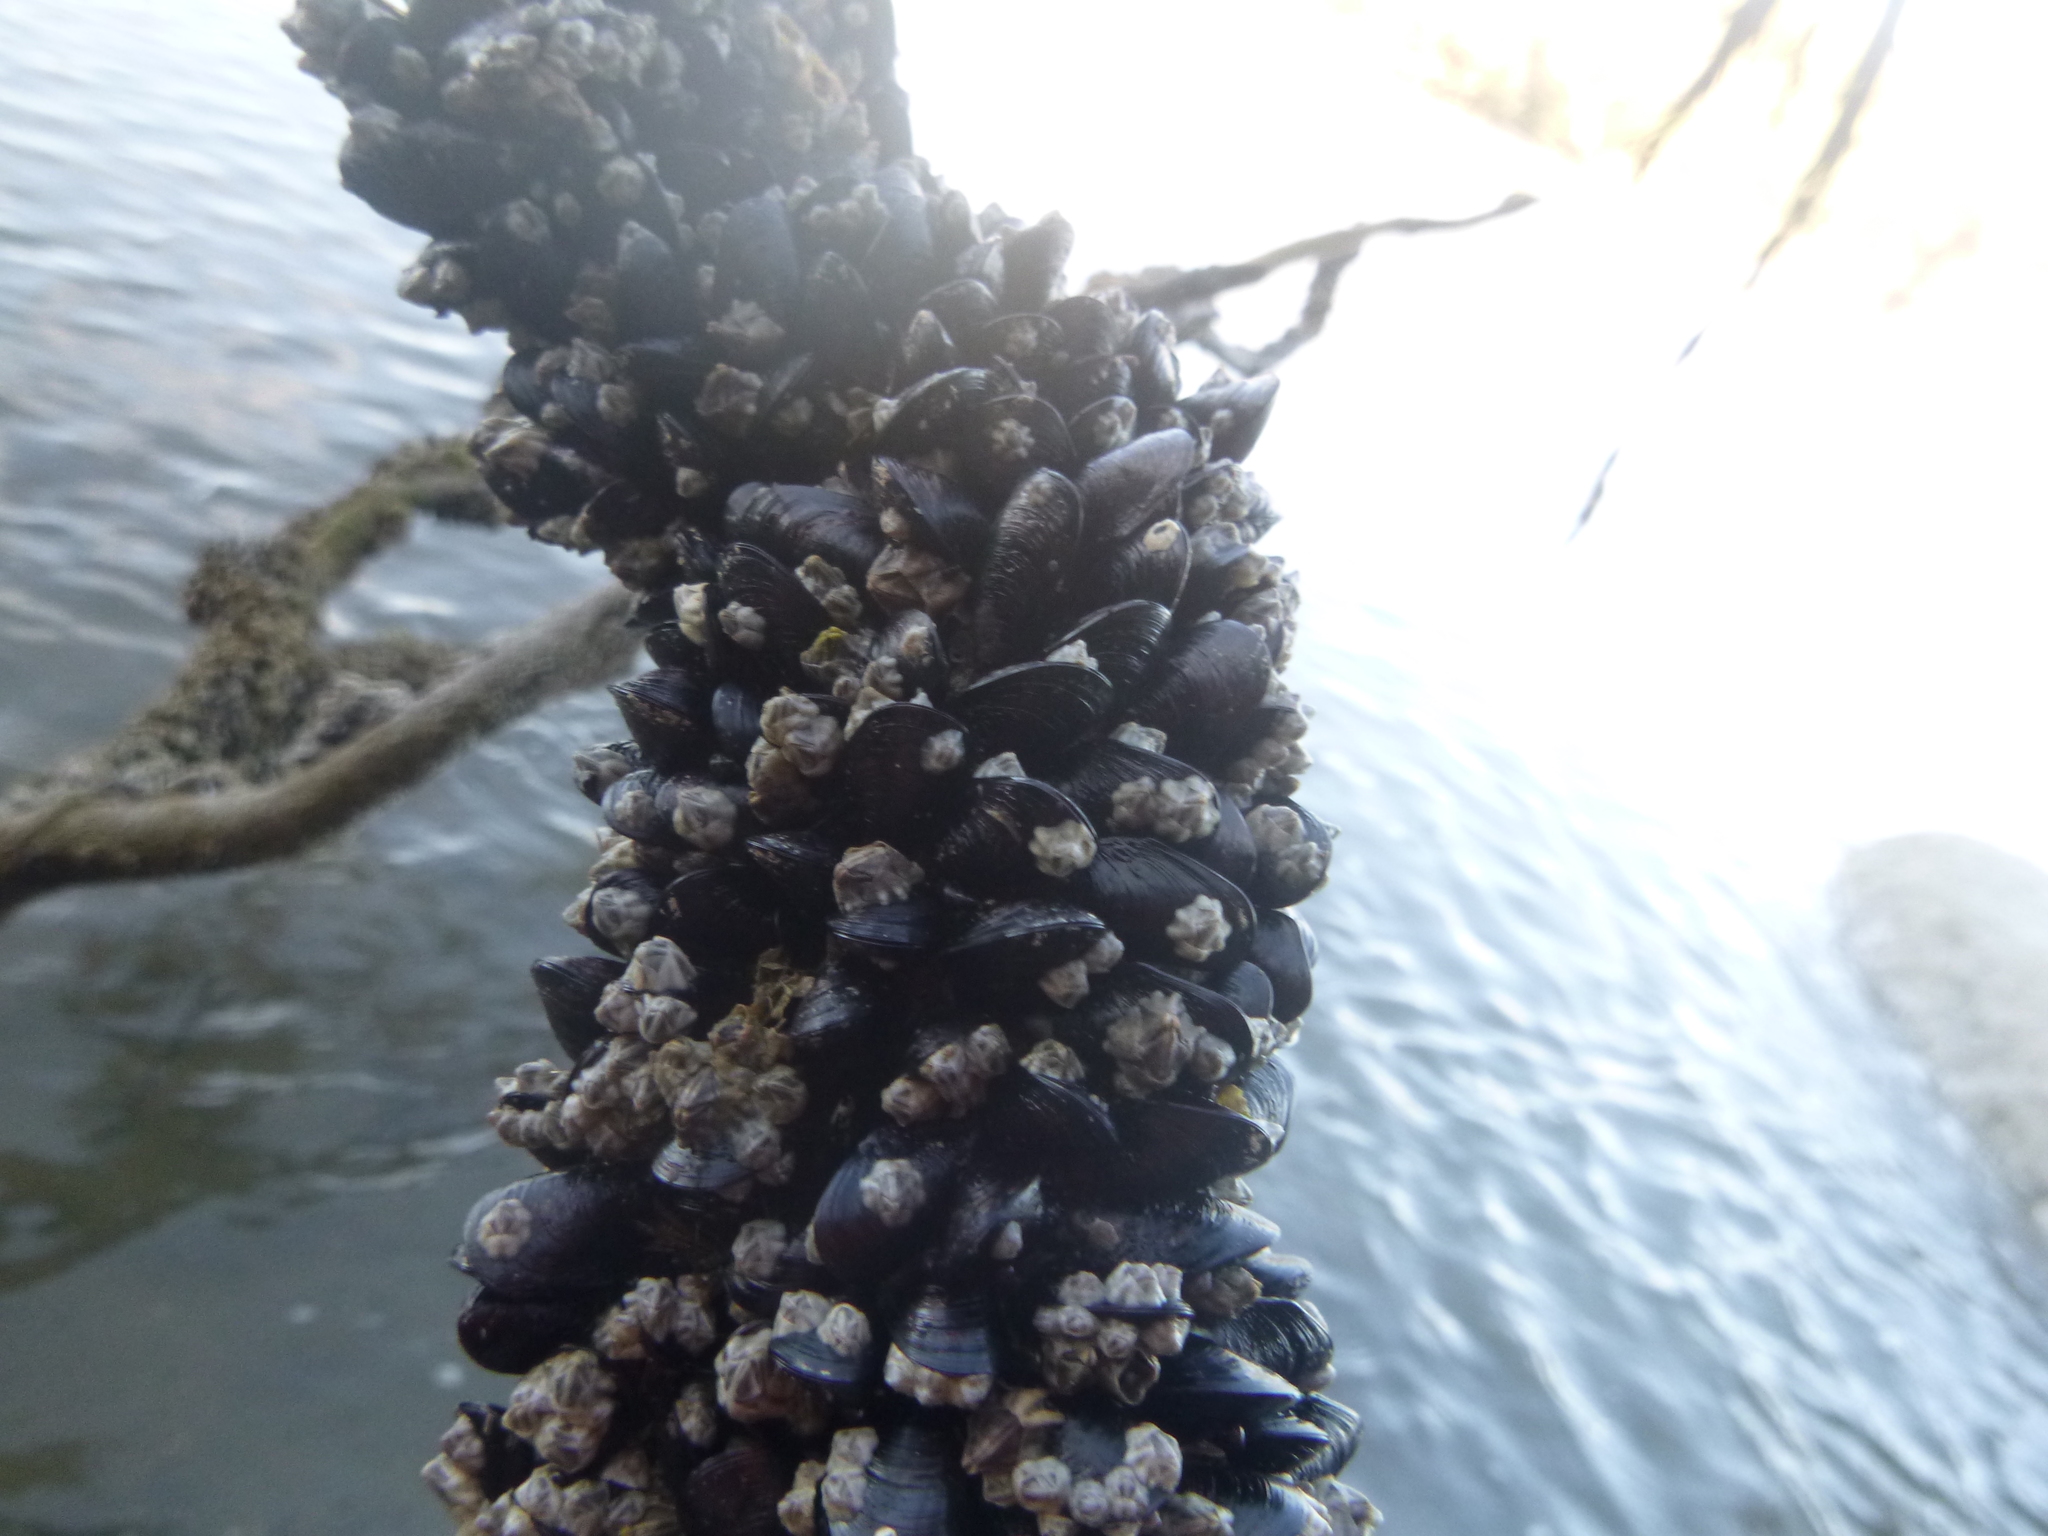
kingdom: Animalia
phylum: Mollusca
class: Bivalvia
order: Mytilida
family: Mytilidae
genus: Xenostrobus
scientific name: Xenostrobus neozelanicus
